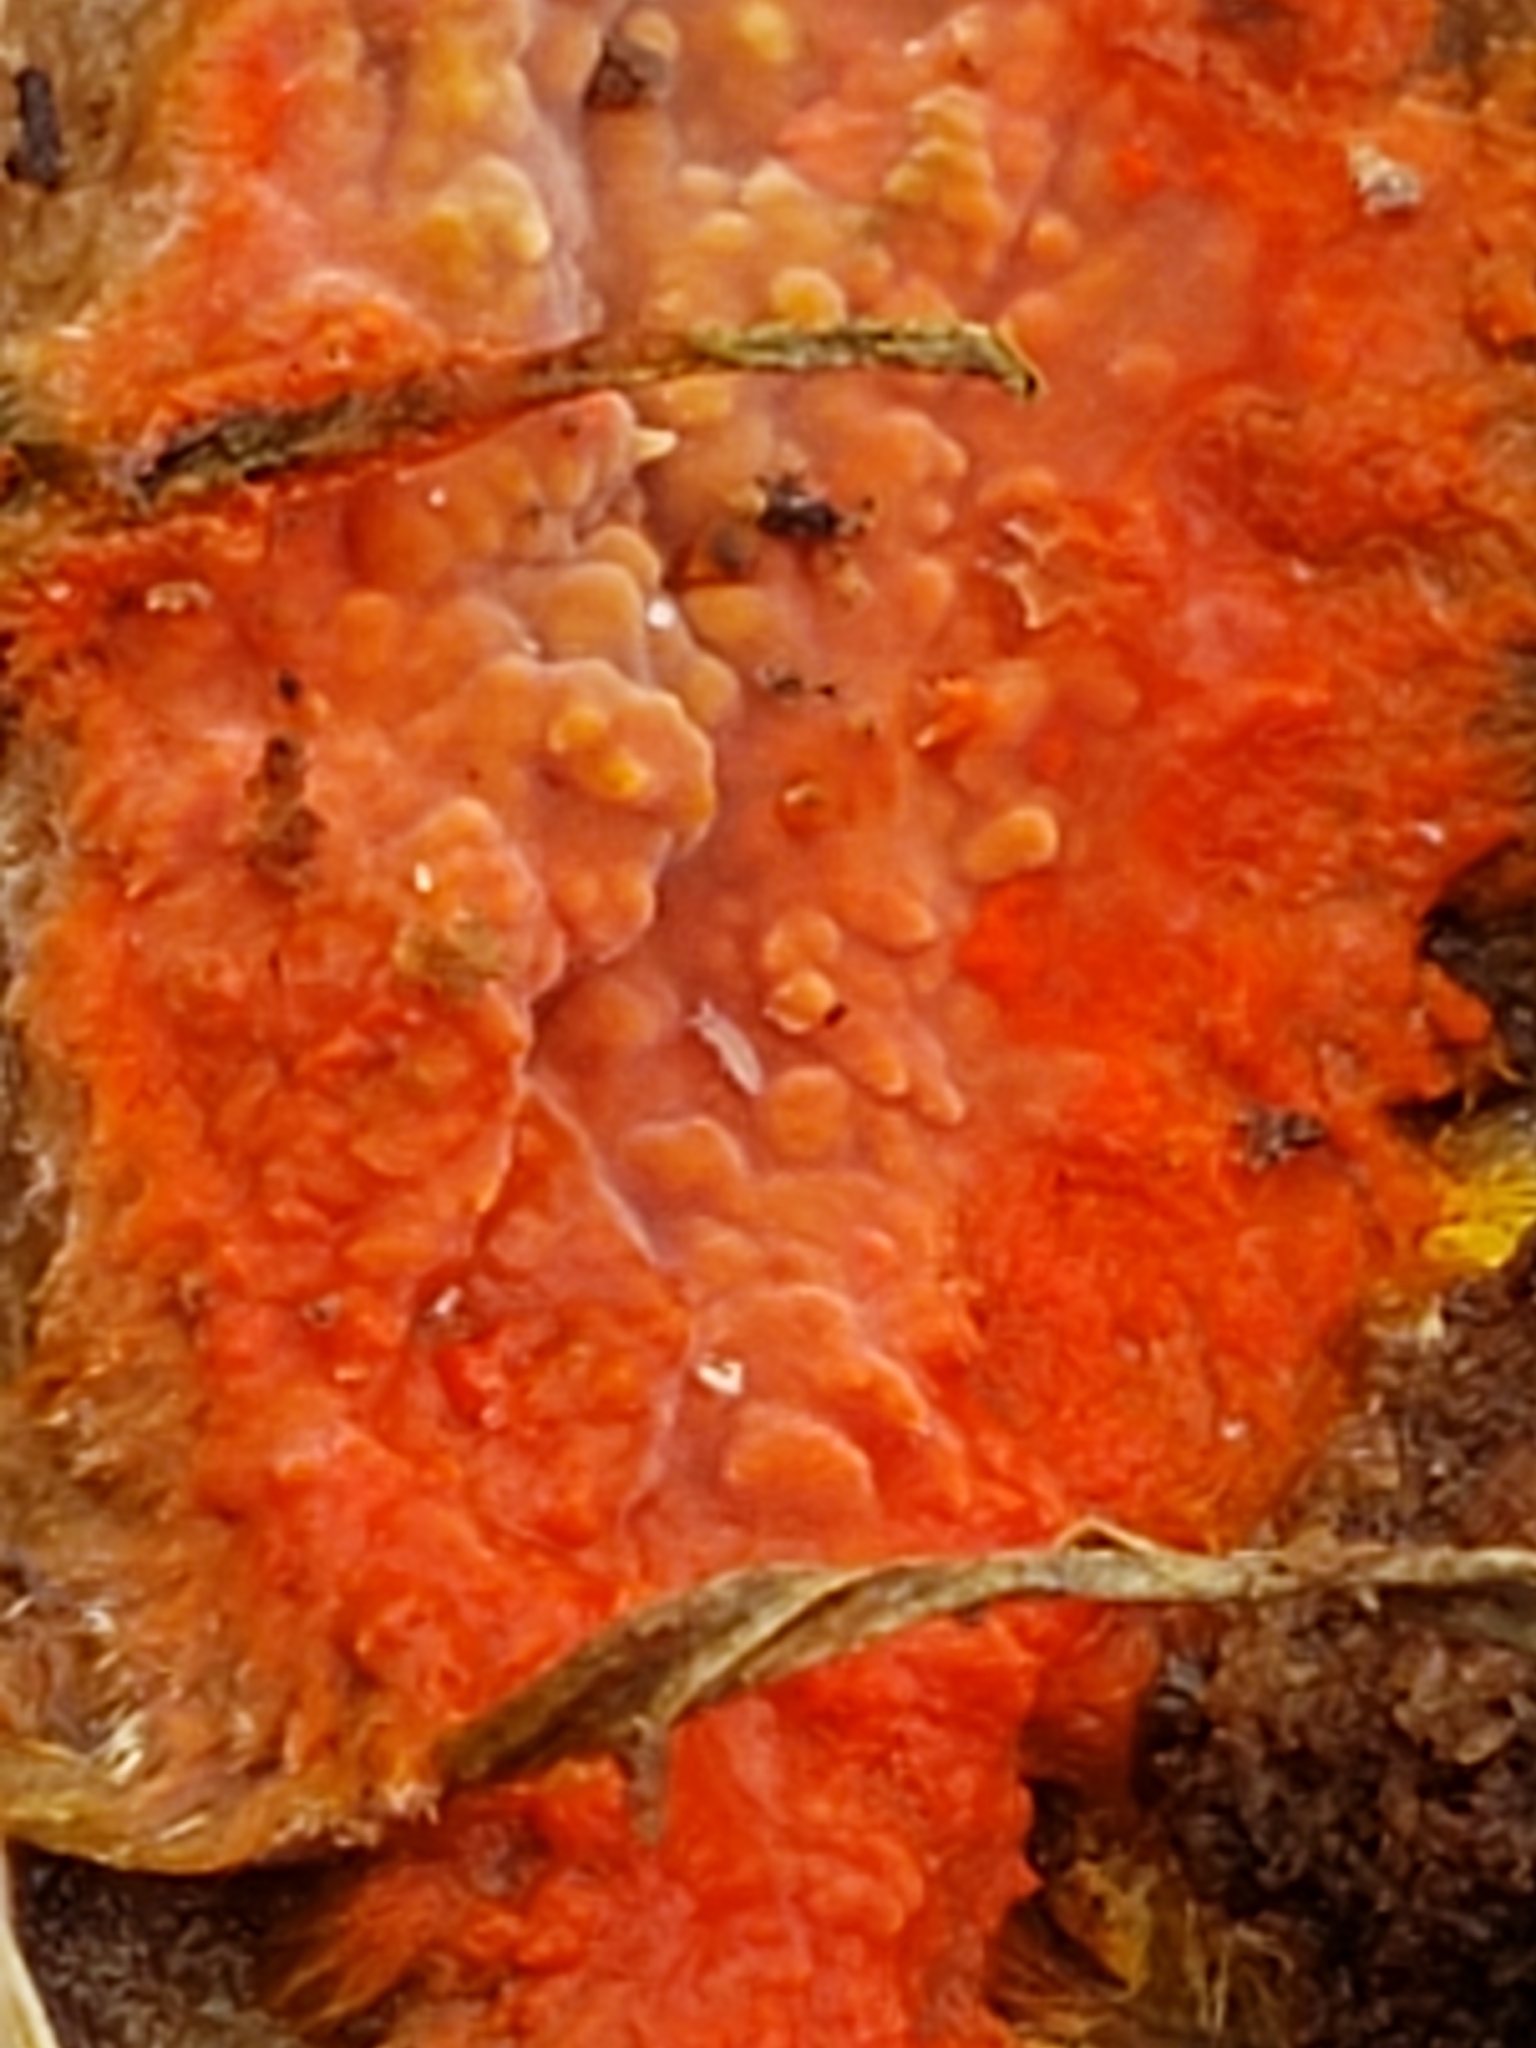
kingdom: Fungi
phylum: Basidiomycota
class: Agaricomycetes
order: Polyporales
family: Meruliaceae
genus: Phlebia
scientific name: Phlebia coccineofulva
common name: Scarlet waxcrust
